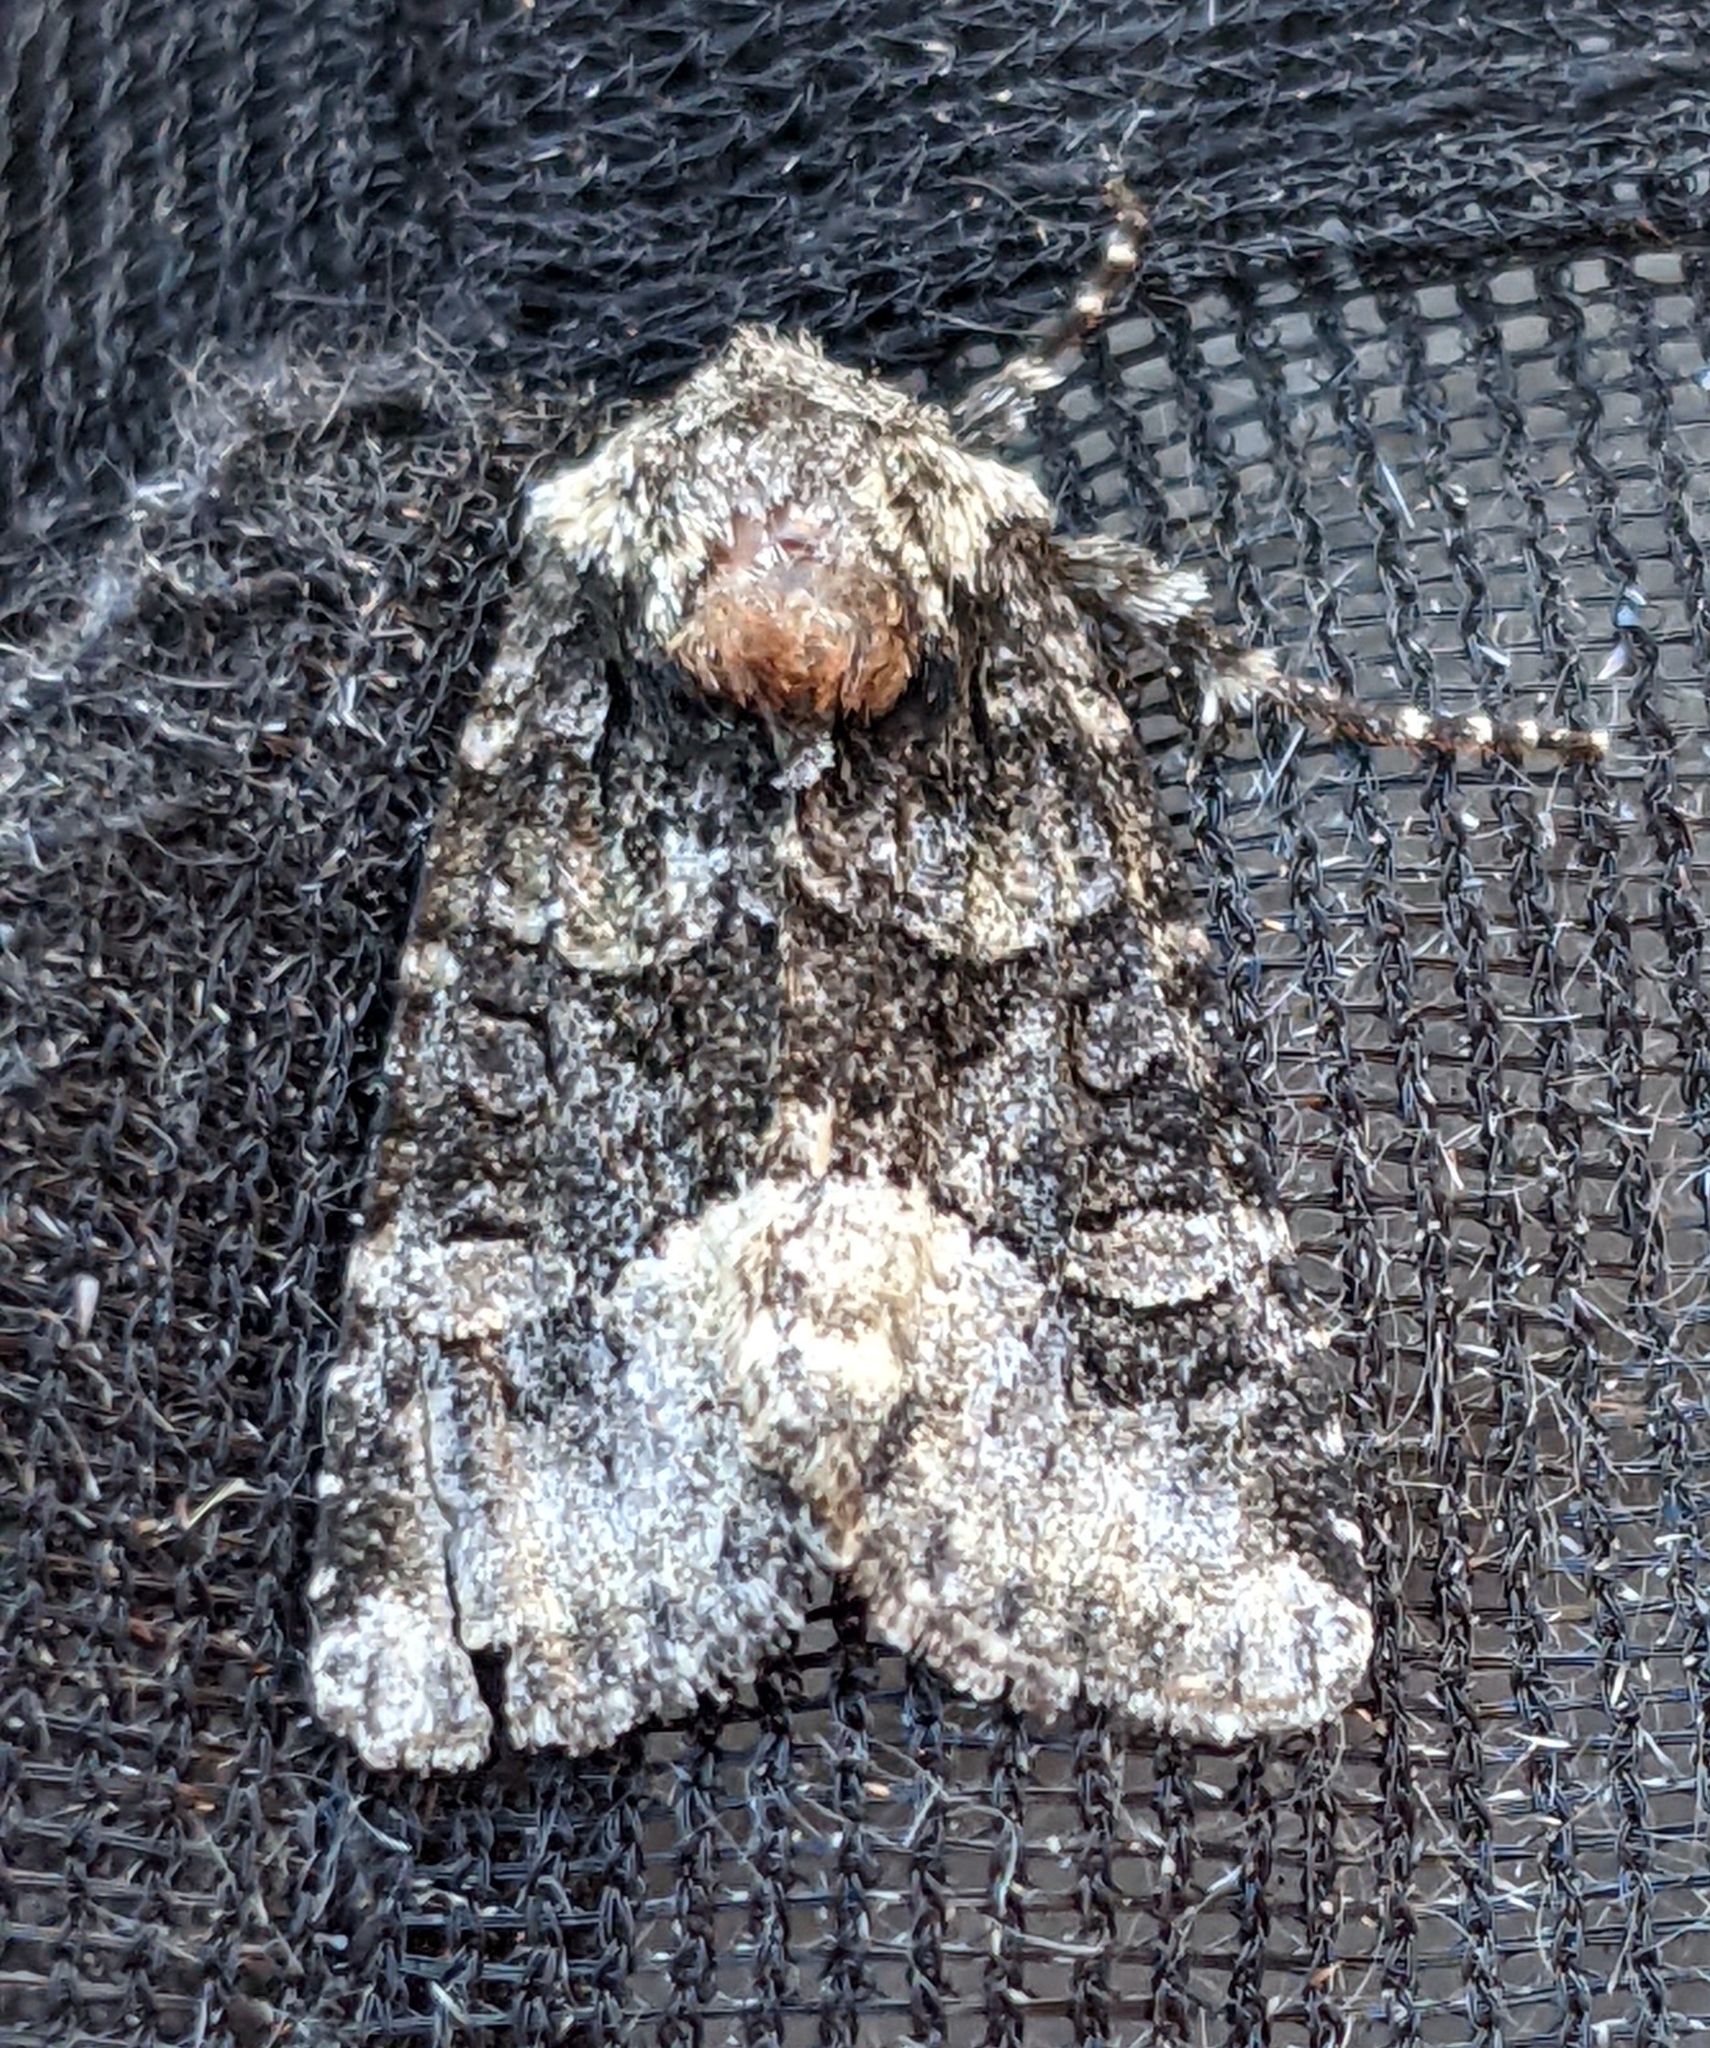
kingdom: Animalia
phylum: Arthropoda
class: Insecta
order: Lepidoptera
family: Noctuidae
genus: Lacinipolia
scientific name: Lacinipolia olivacea
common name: Olive arches moth
